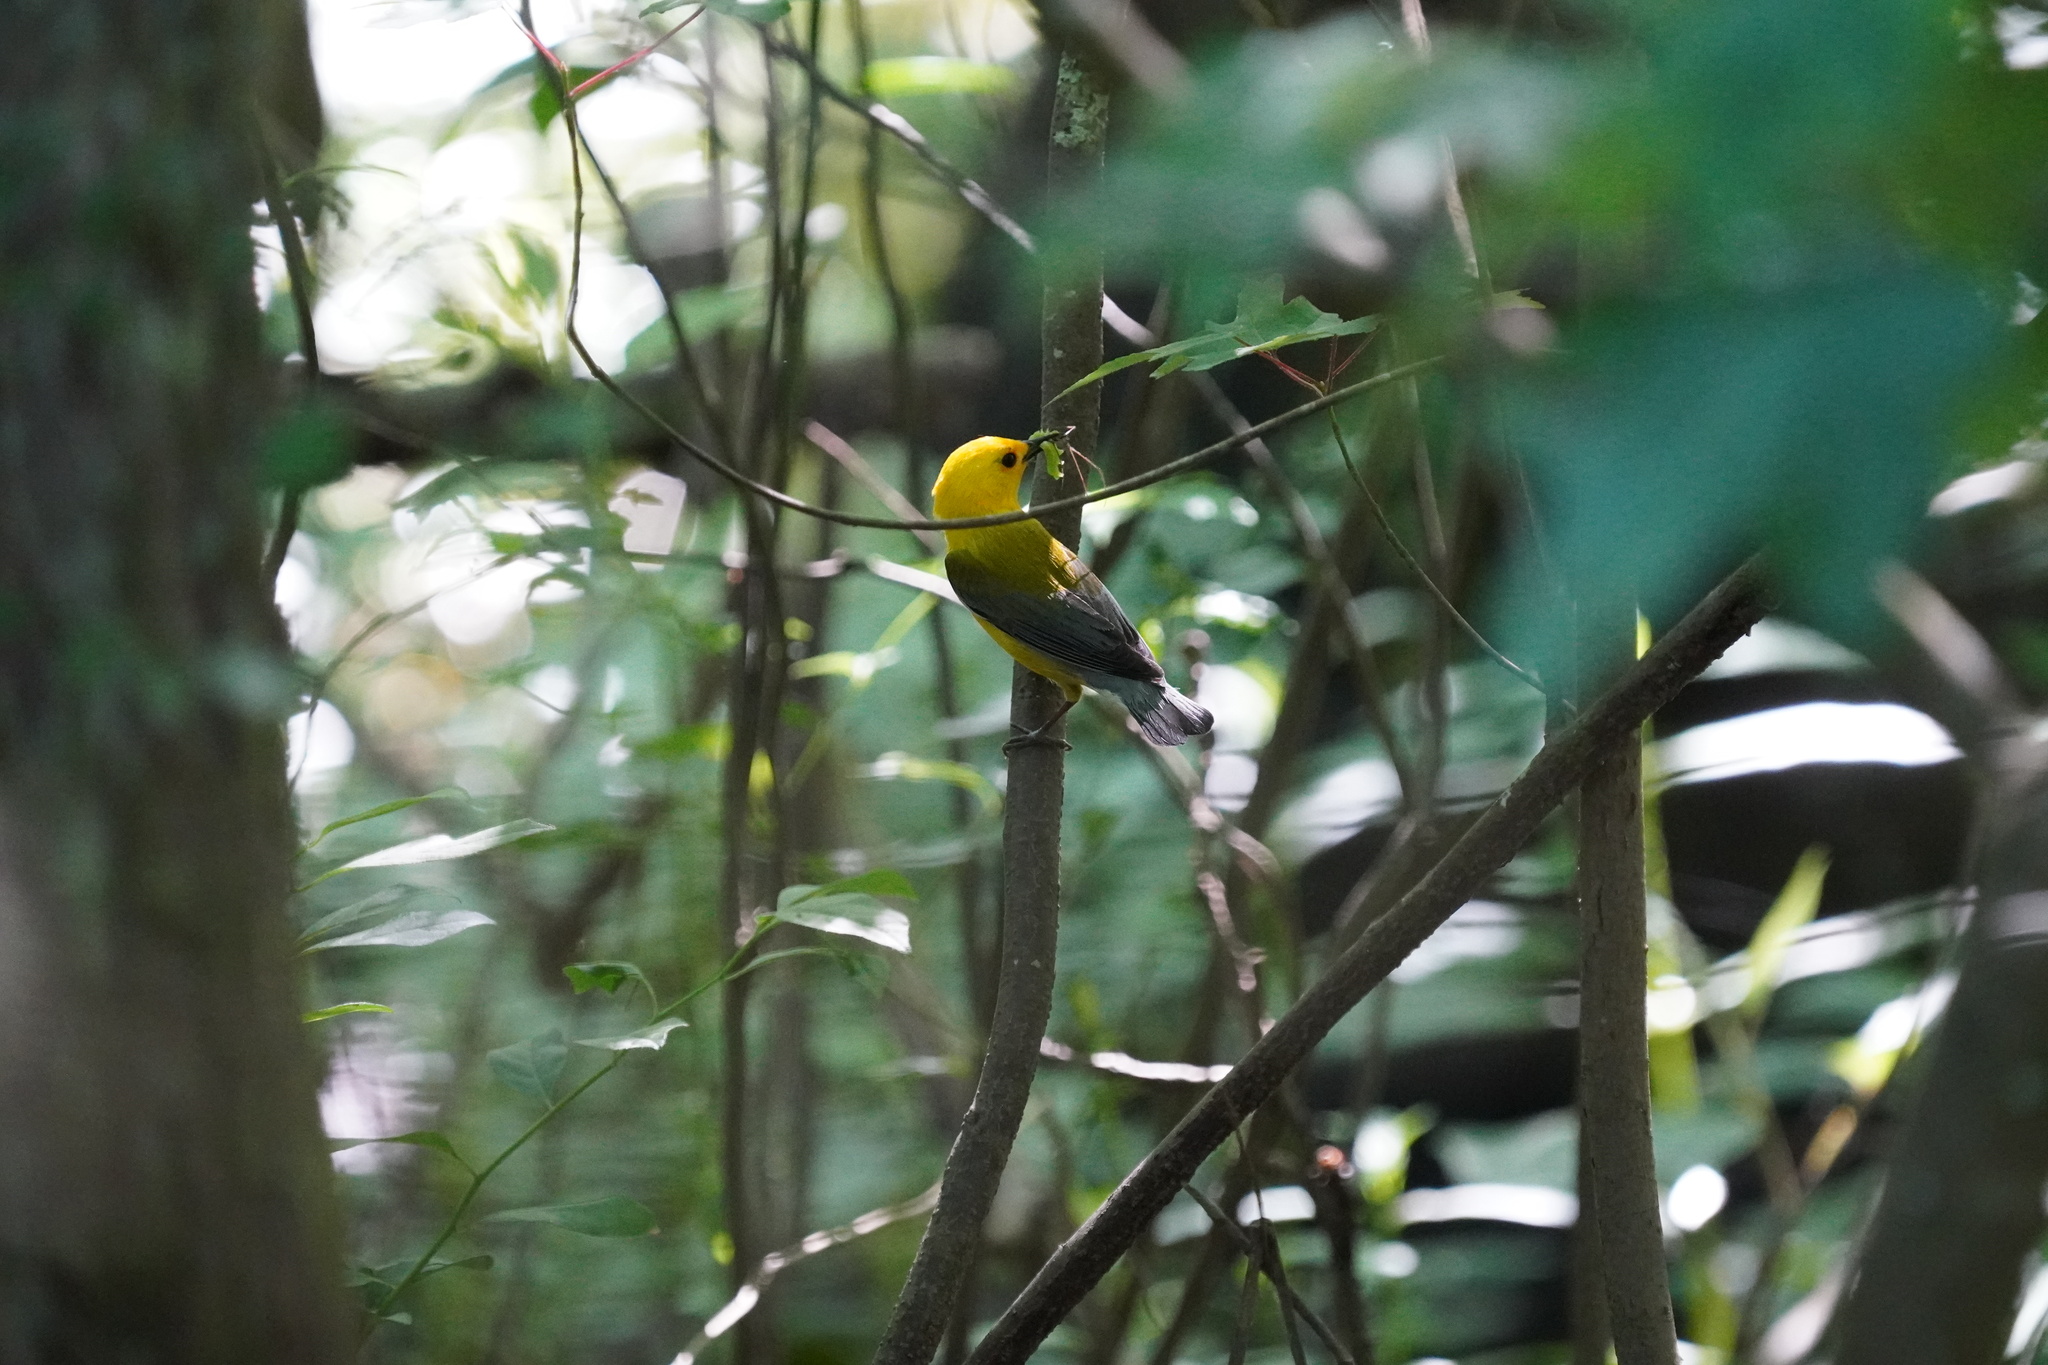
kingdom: Animalia
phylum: Chordata
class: Aves
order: Passeriformes
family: Parulidae
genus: Protonotaria
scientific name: Protonotaria citrea
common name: Prothonotary warbler
